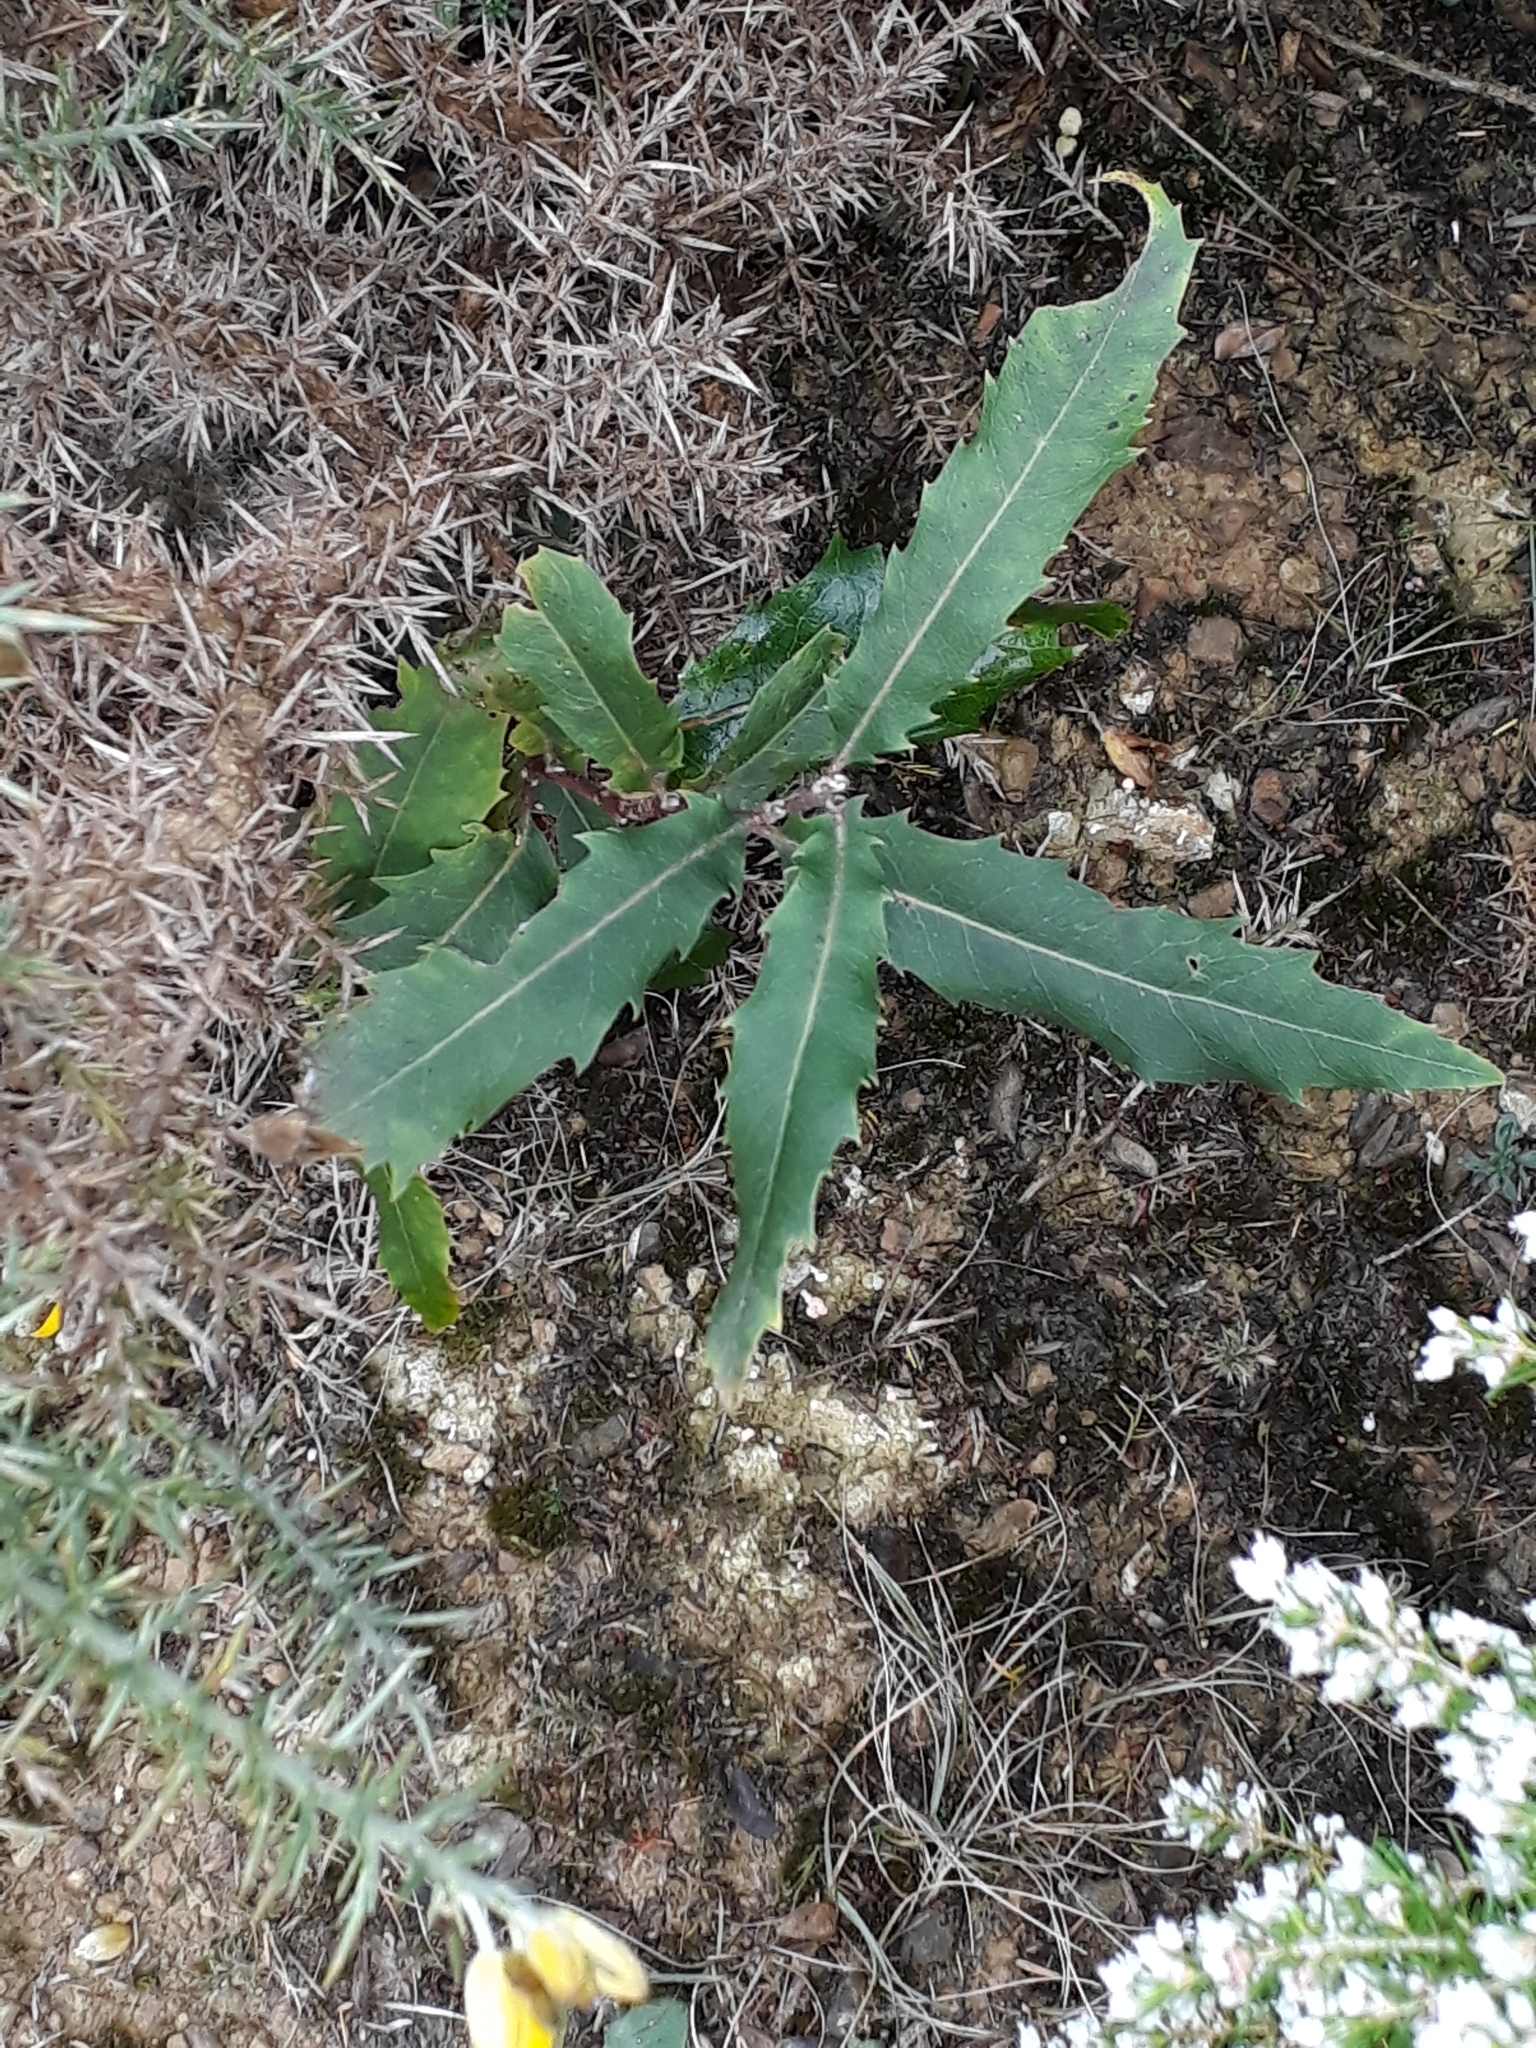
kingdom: Plantae
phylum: Tracheophyta
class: Magnoliopsida
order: Proteales
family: Proteaceae
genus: Lomatia
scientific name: Lomatia fraseri
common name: Forest lomatia
